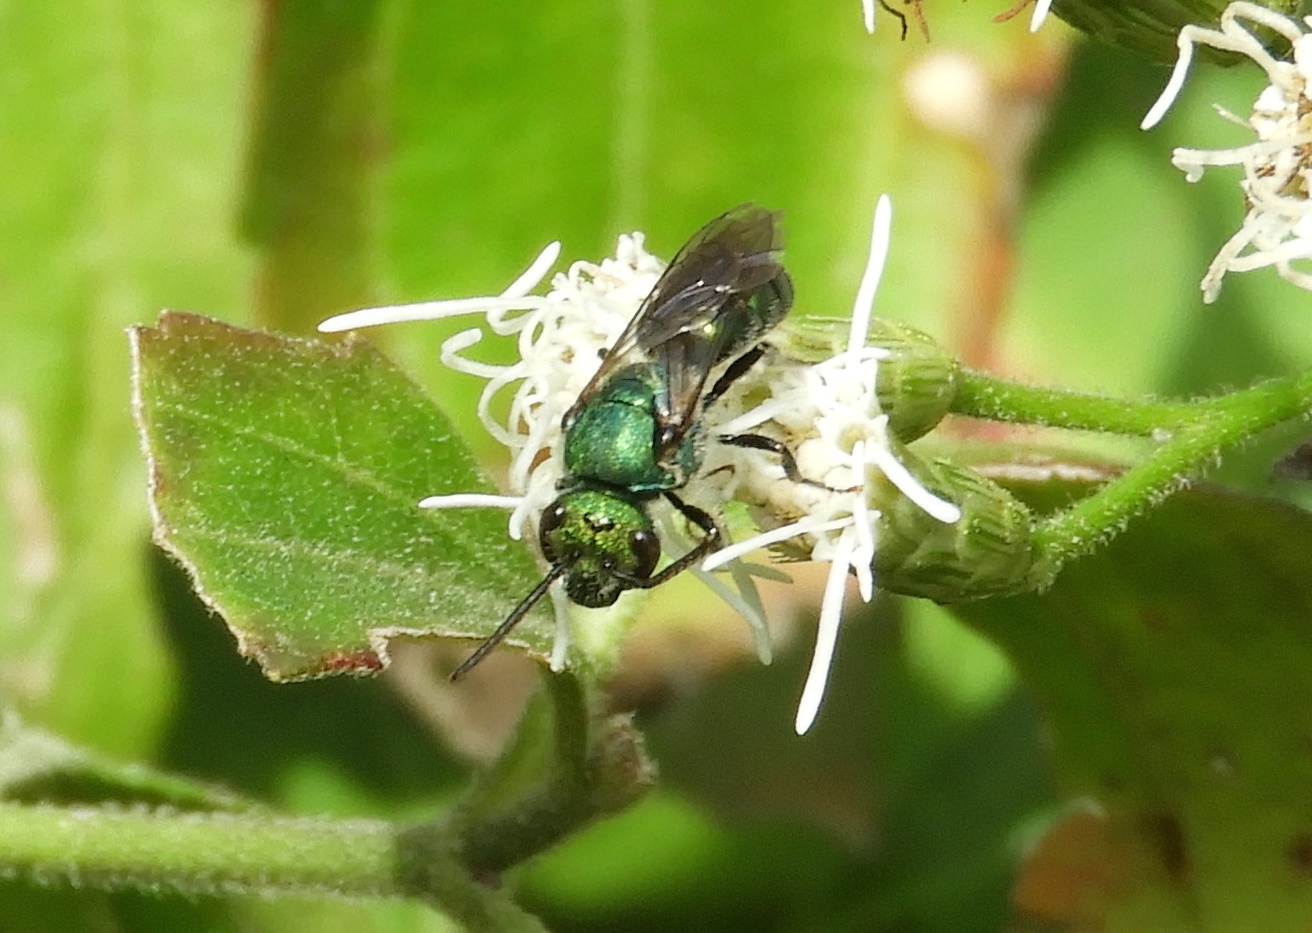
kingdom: Animalia
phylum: Arthropoda
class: Insecta
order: Hymenoptera
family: Halictidae
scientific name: Halictidae
